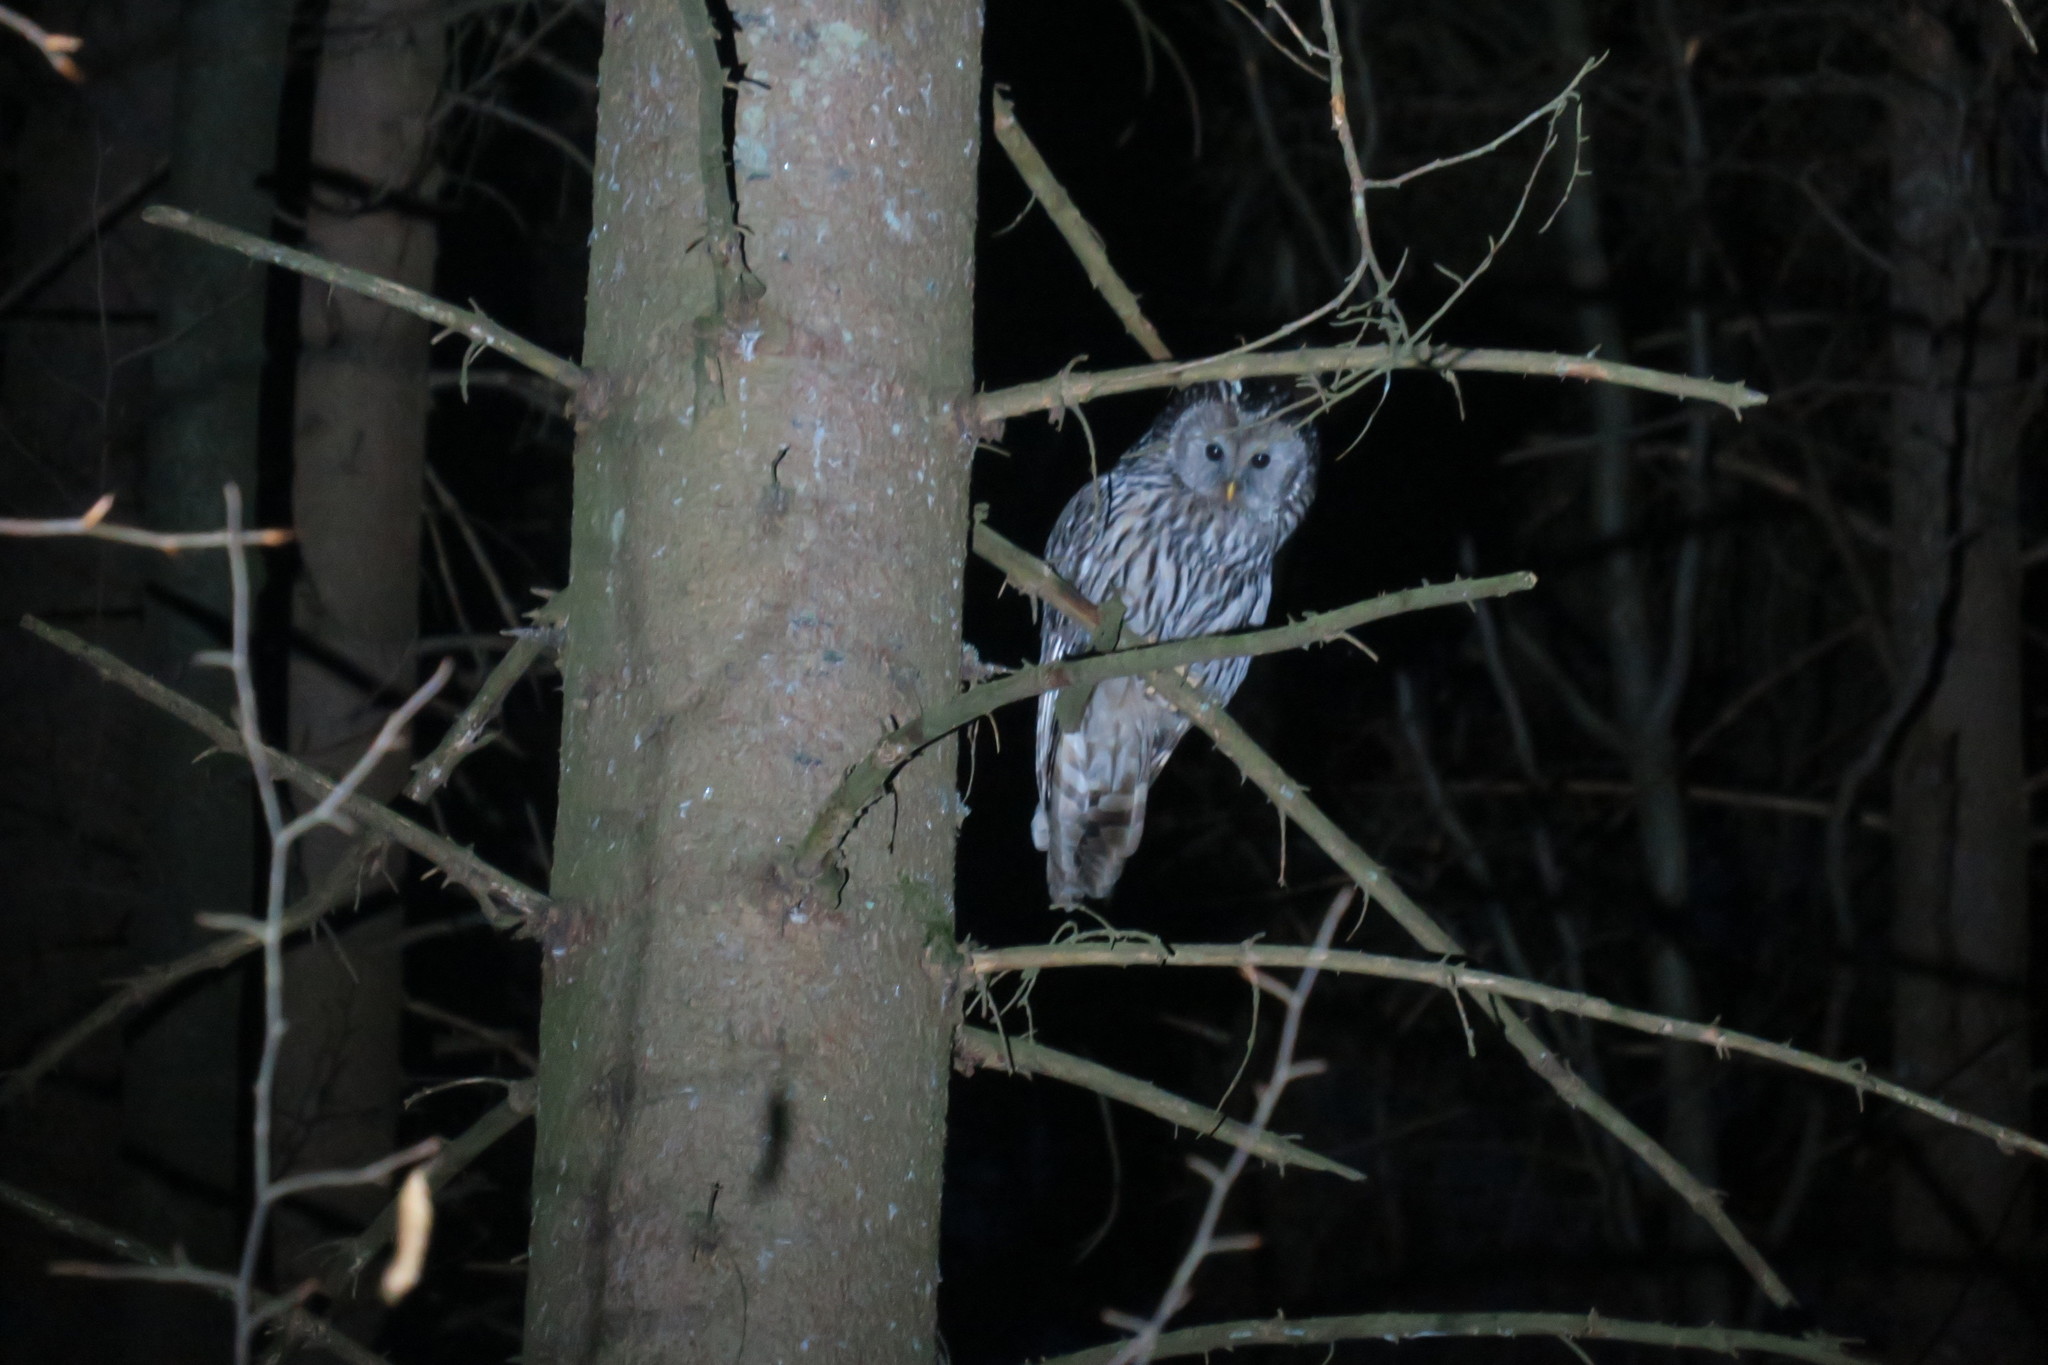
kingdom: Animalia
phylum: Chordata
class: Aves
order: Strigiformes
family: Strigidae
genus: Strix
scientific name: Strix uralensis
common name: Ural owl
